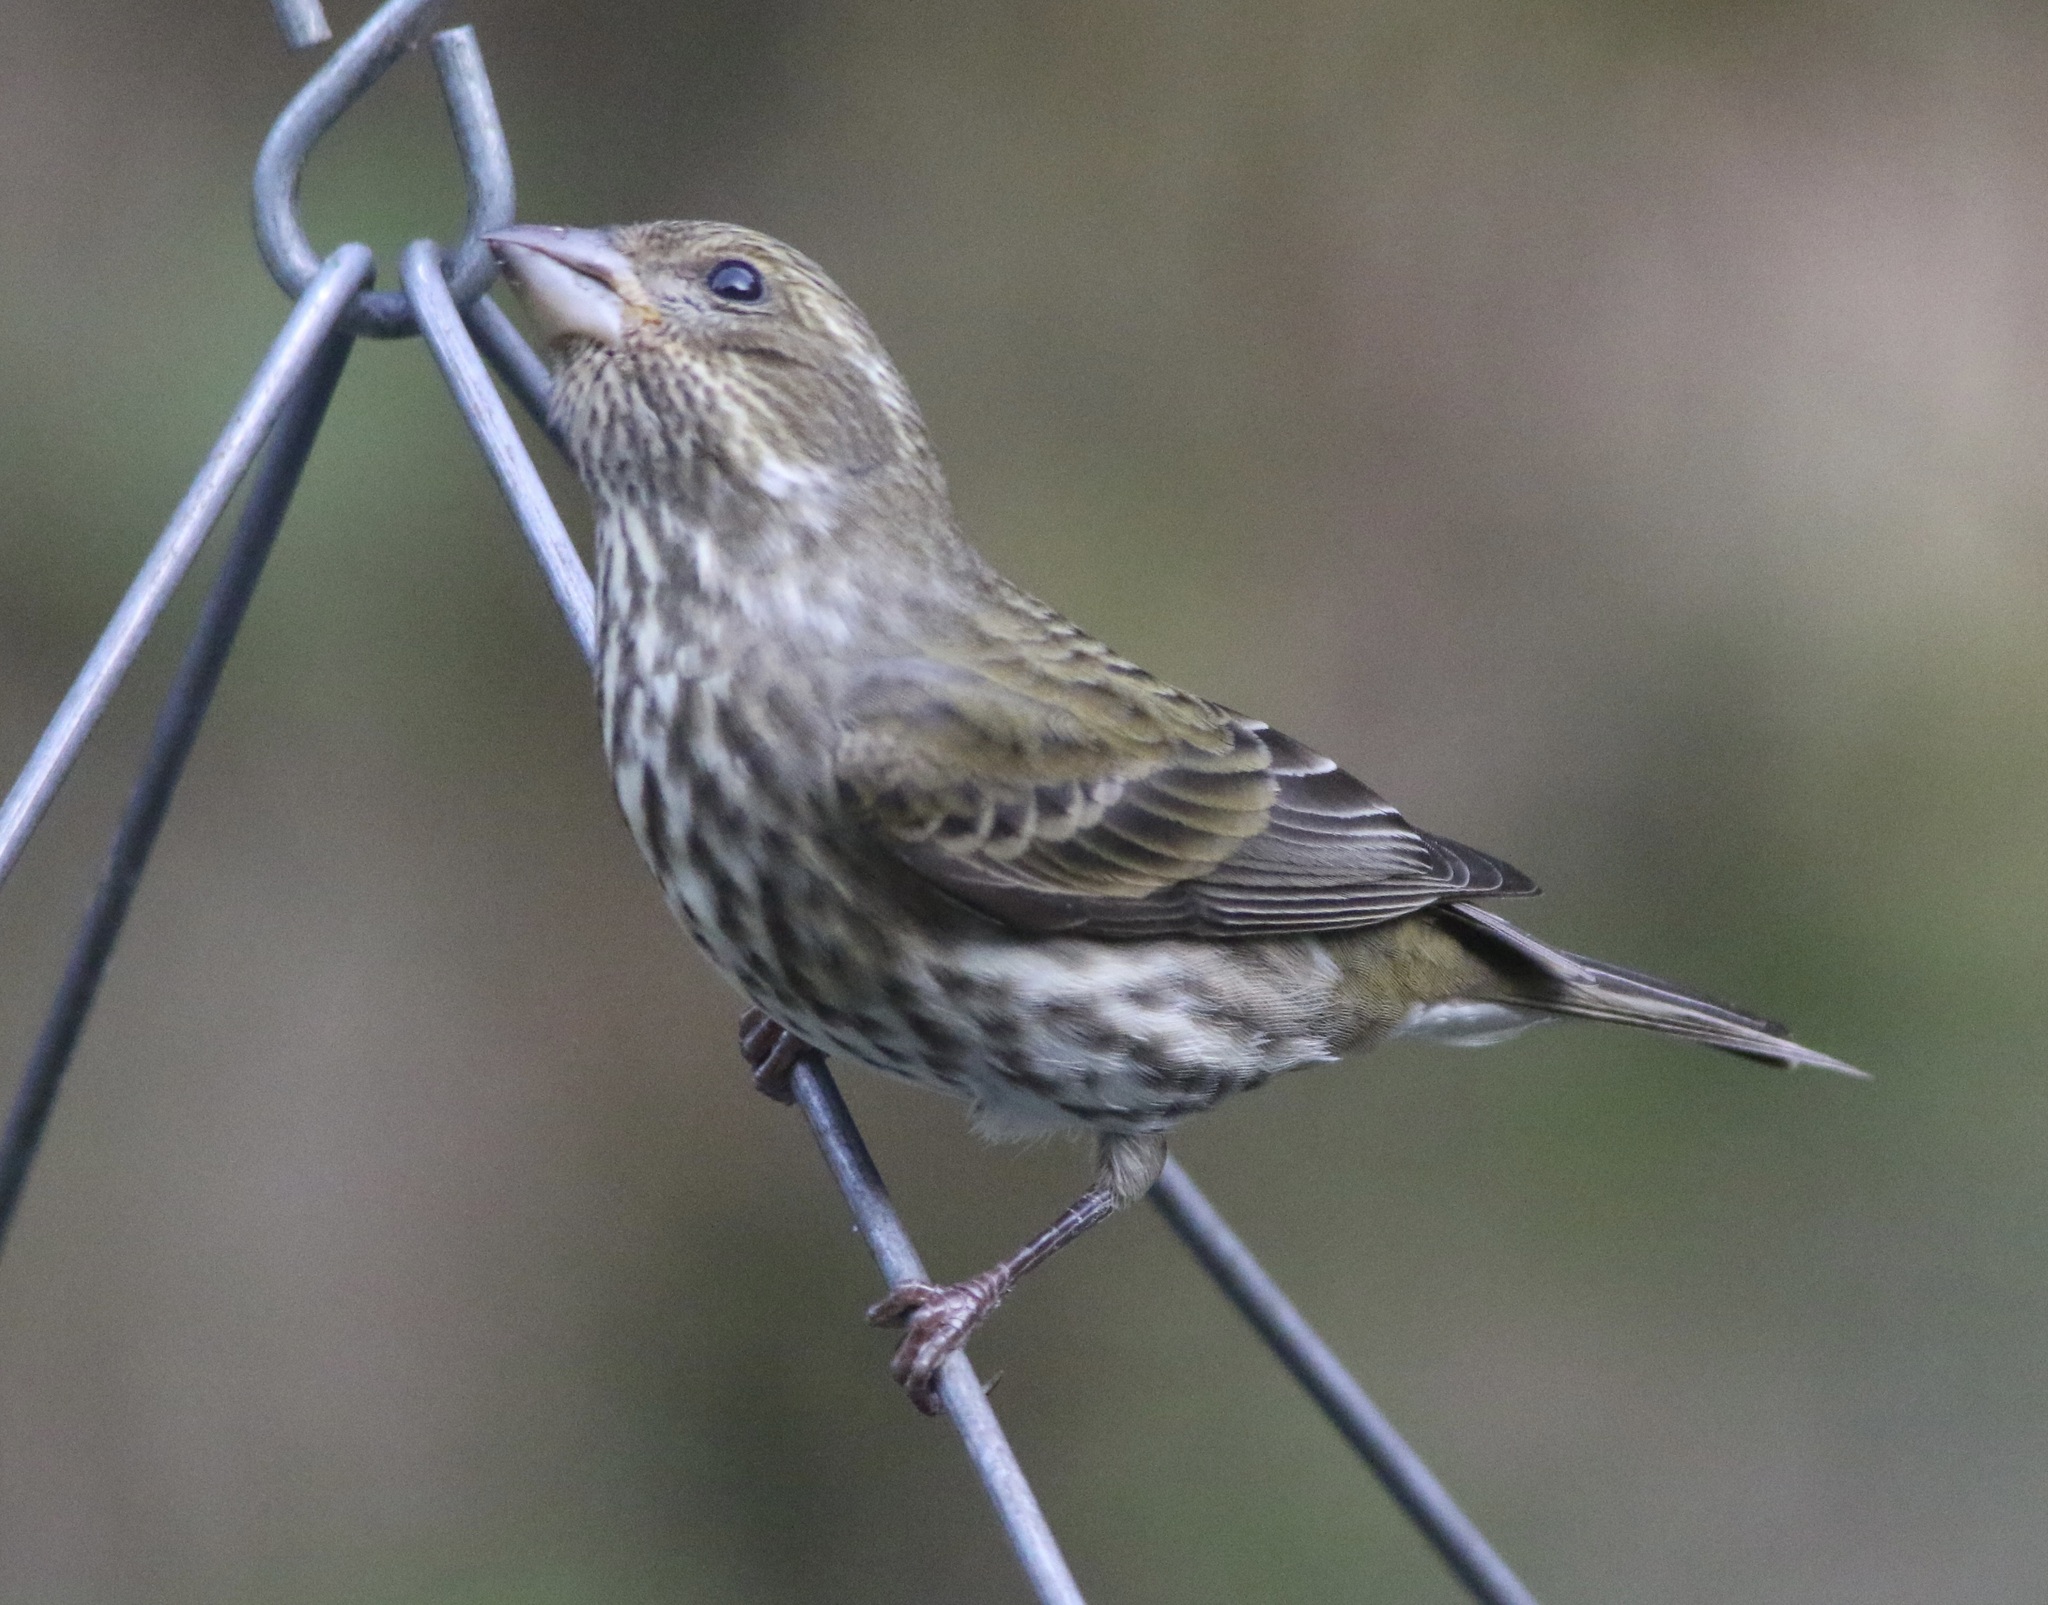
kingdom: Animalia
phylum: Chordata
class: Aves
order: Passeriformes
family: Fringillidae
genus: Haemorhous
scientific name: Haemorhous purpureus
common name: Purple finch
